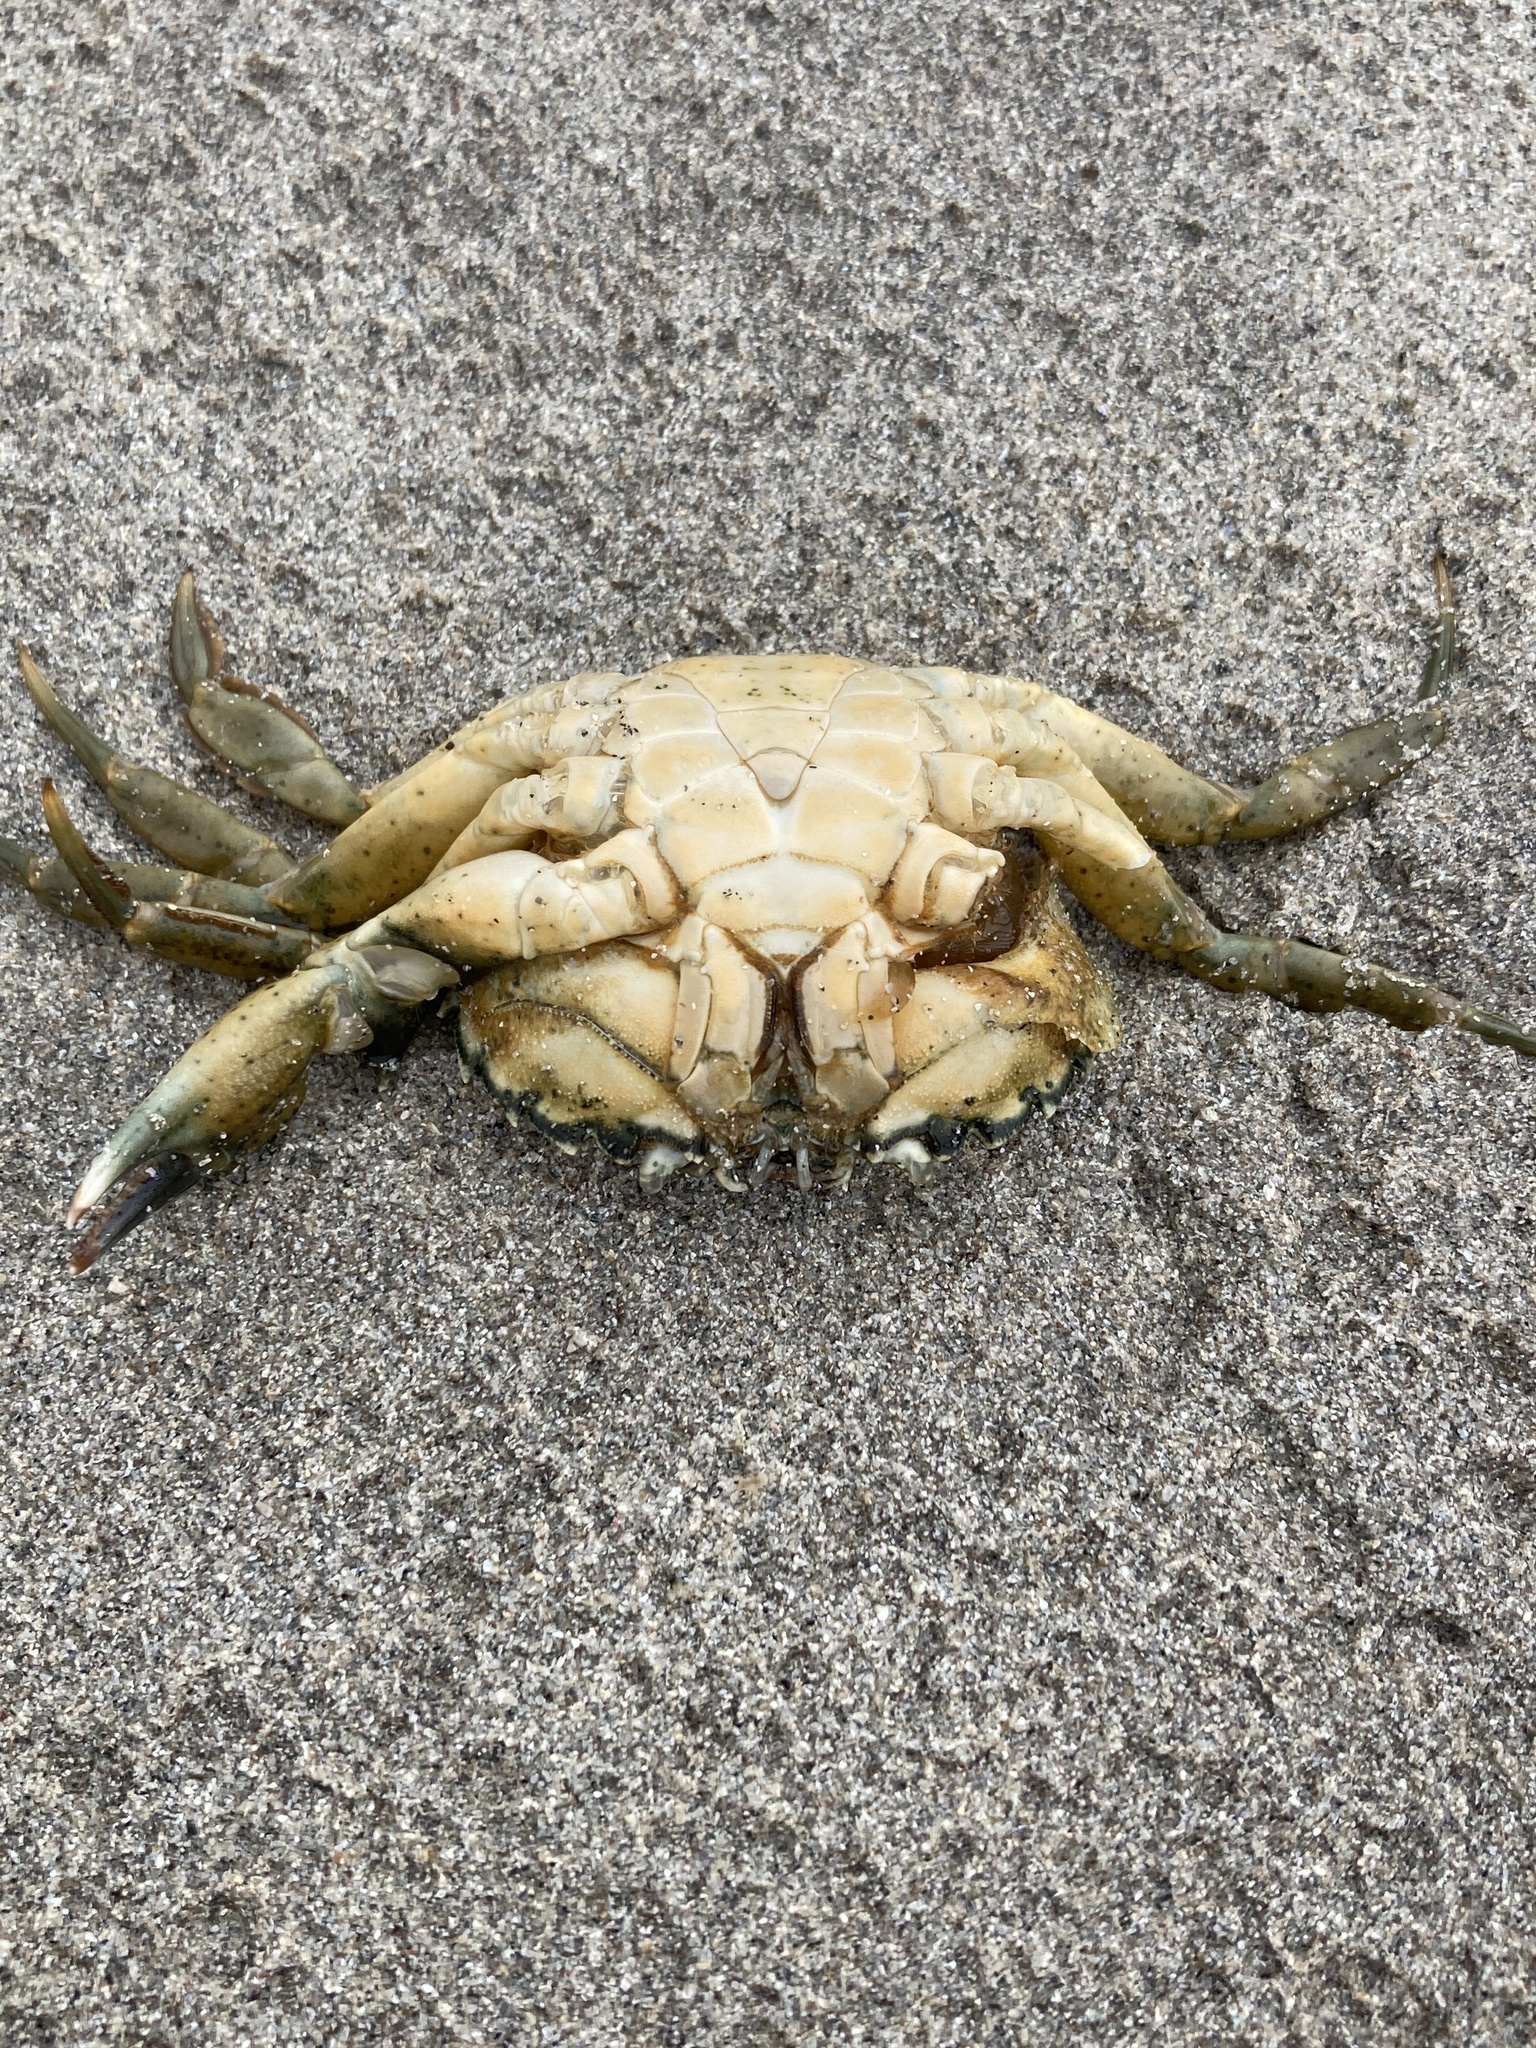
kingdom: Animalia
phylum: Arthropoda
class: Malacostraca
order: Decapoda
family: Carcinidae
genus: Carcinus
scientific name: Carcinus maenas
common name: European green crab
